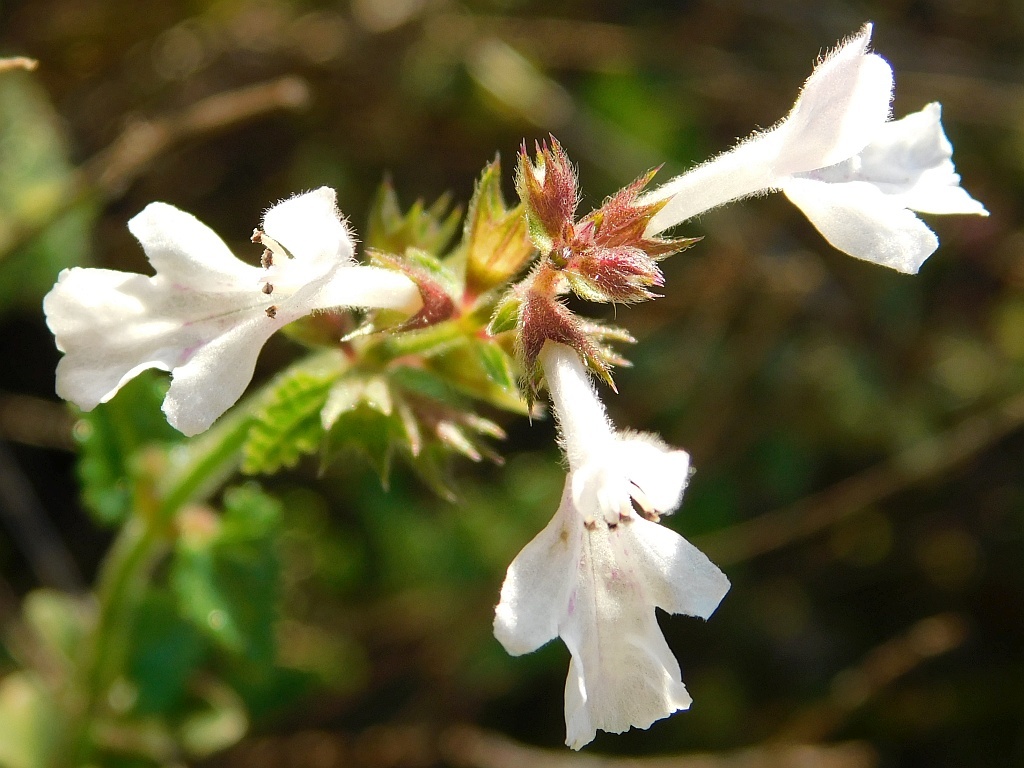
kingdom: Plantae
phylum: Tracheophyta
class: Magnoliopsida
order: Lamiales
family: Lamiaceae
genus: Stachys
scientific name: Stachys aethiopica
